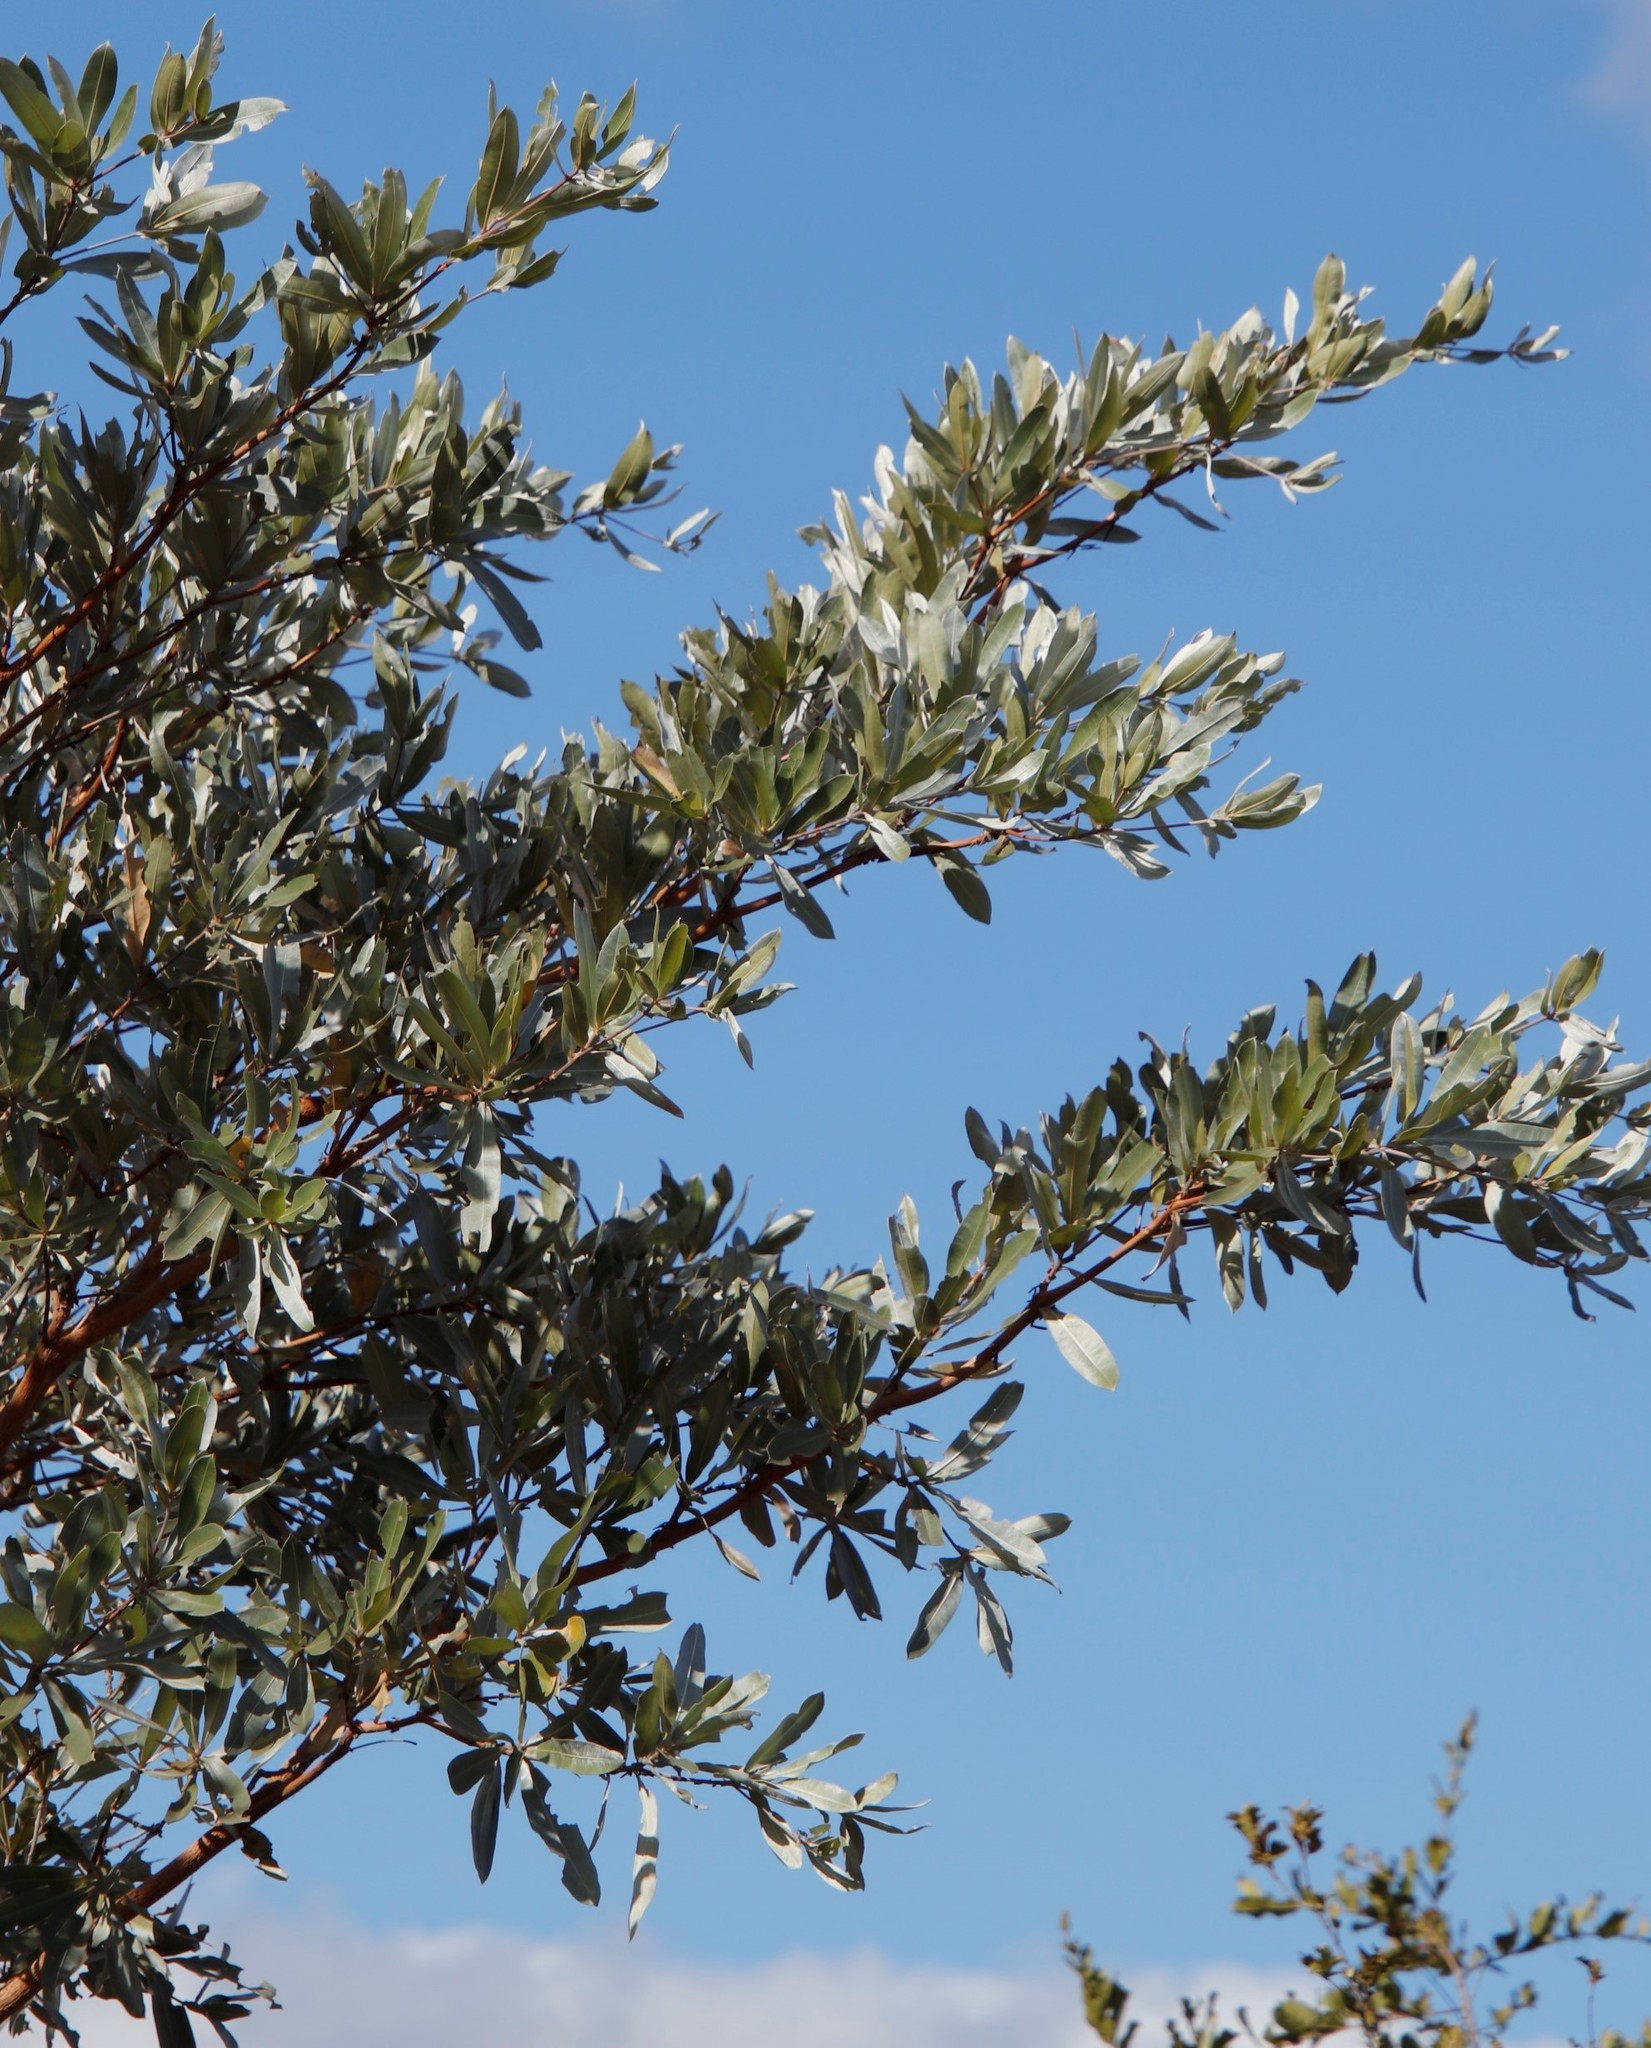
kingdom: Plantae
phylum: Tracheophyta
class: Magnoliopsida
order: Myrtales
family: Combretaceae
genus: Terminalia
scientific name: Terminalia sericea
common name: Clusterleaf
